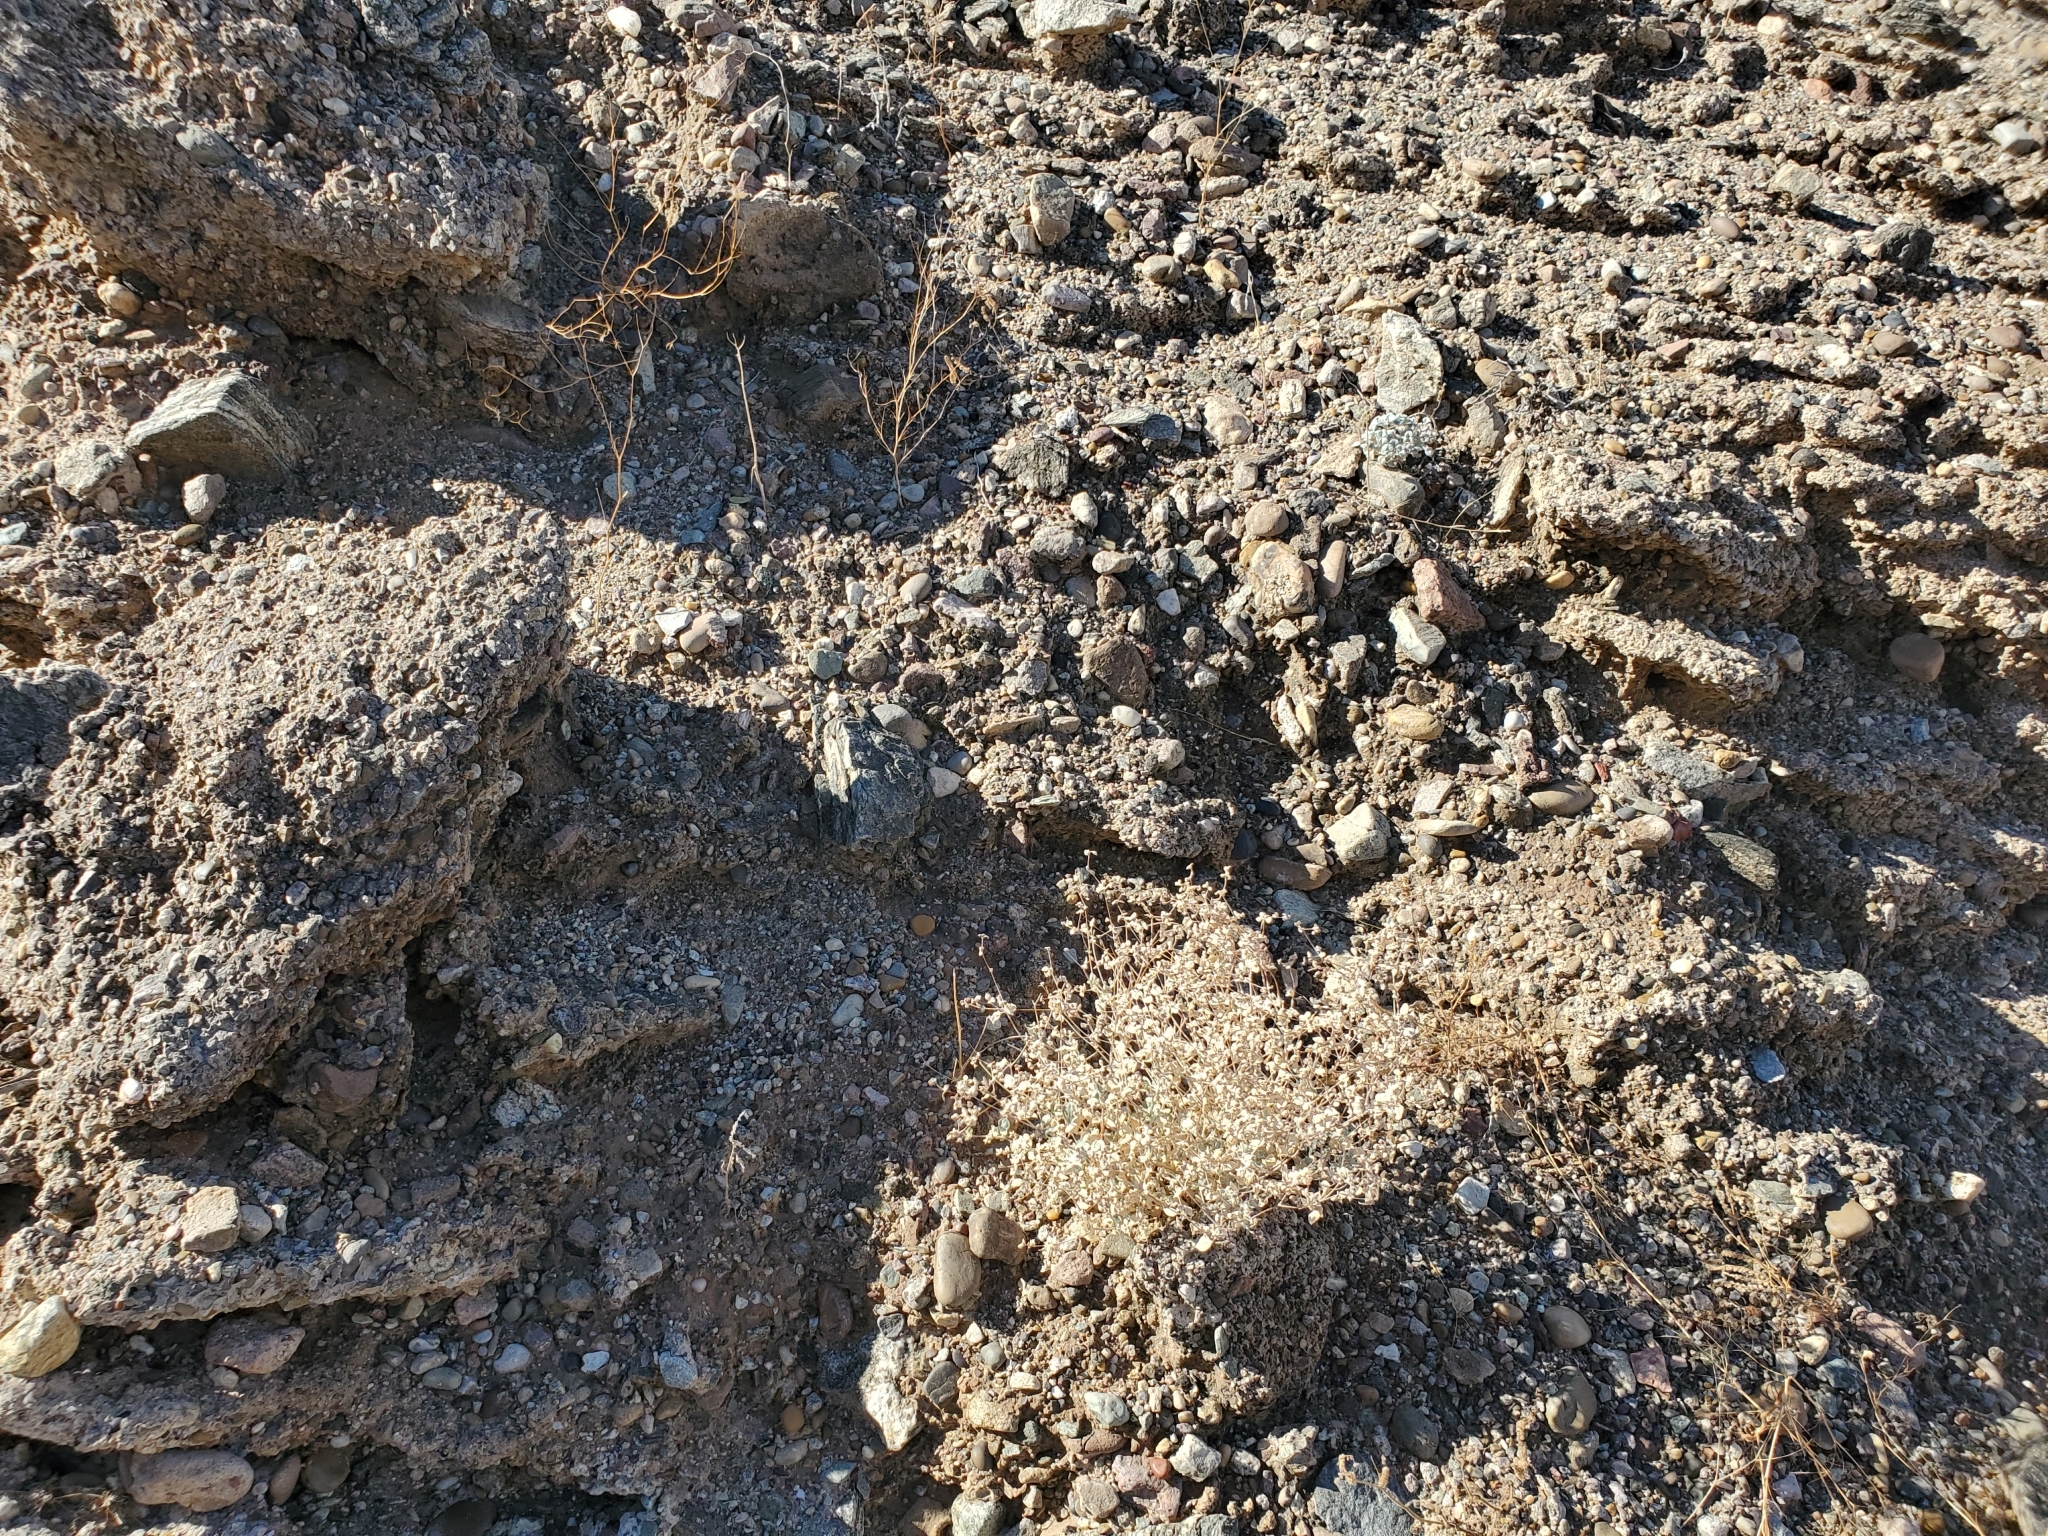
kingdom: Plantae
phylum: Tracheophyta
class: Magnoliopsida
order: Caryophyllales
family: Amaranthaceae
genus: Tidestromia
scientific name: Tidestromia suffruticosa
